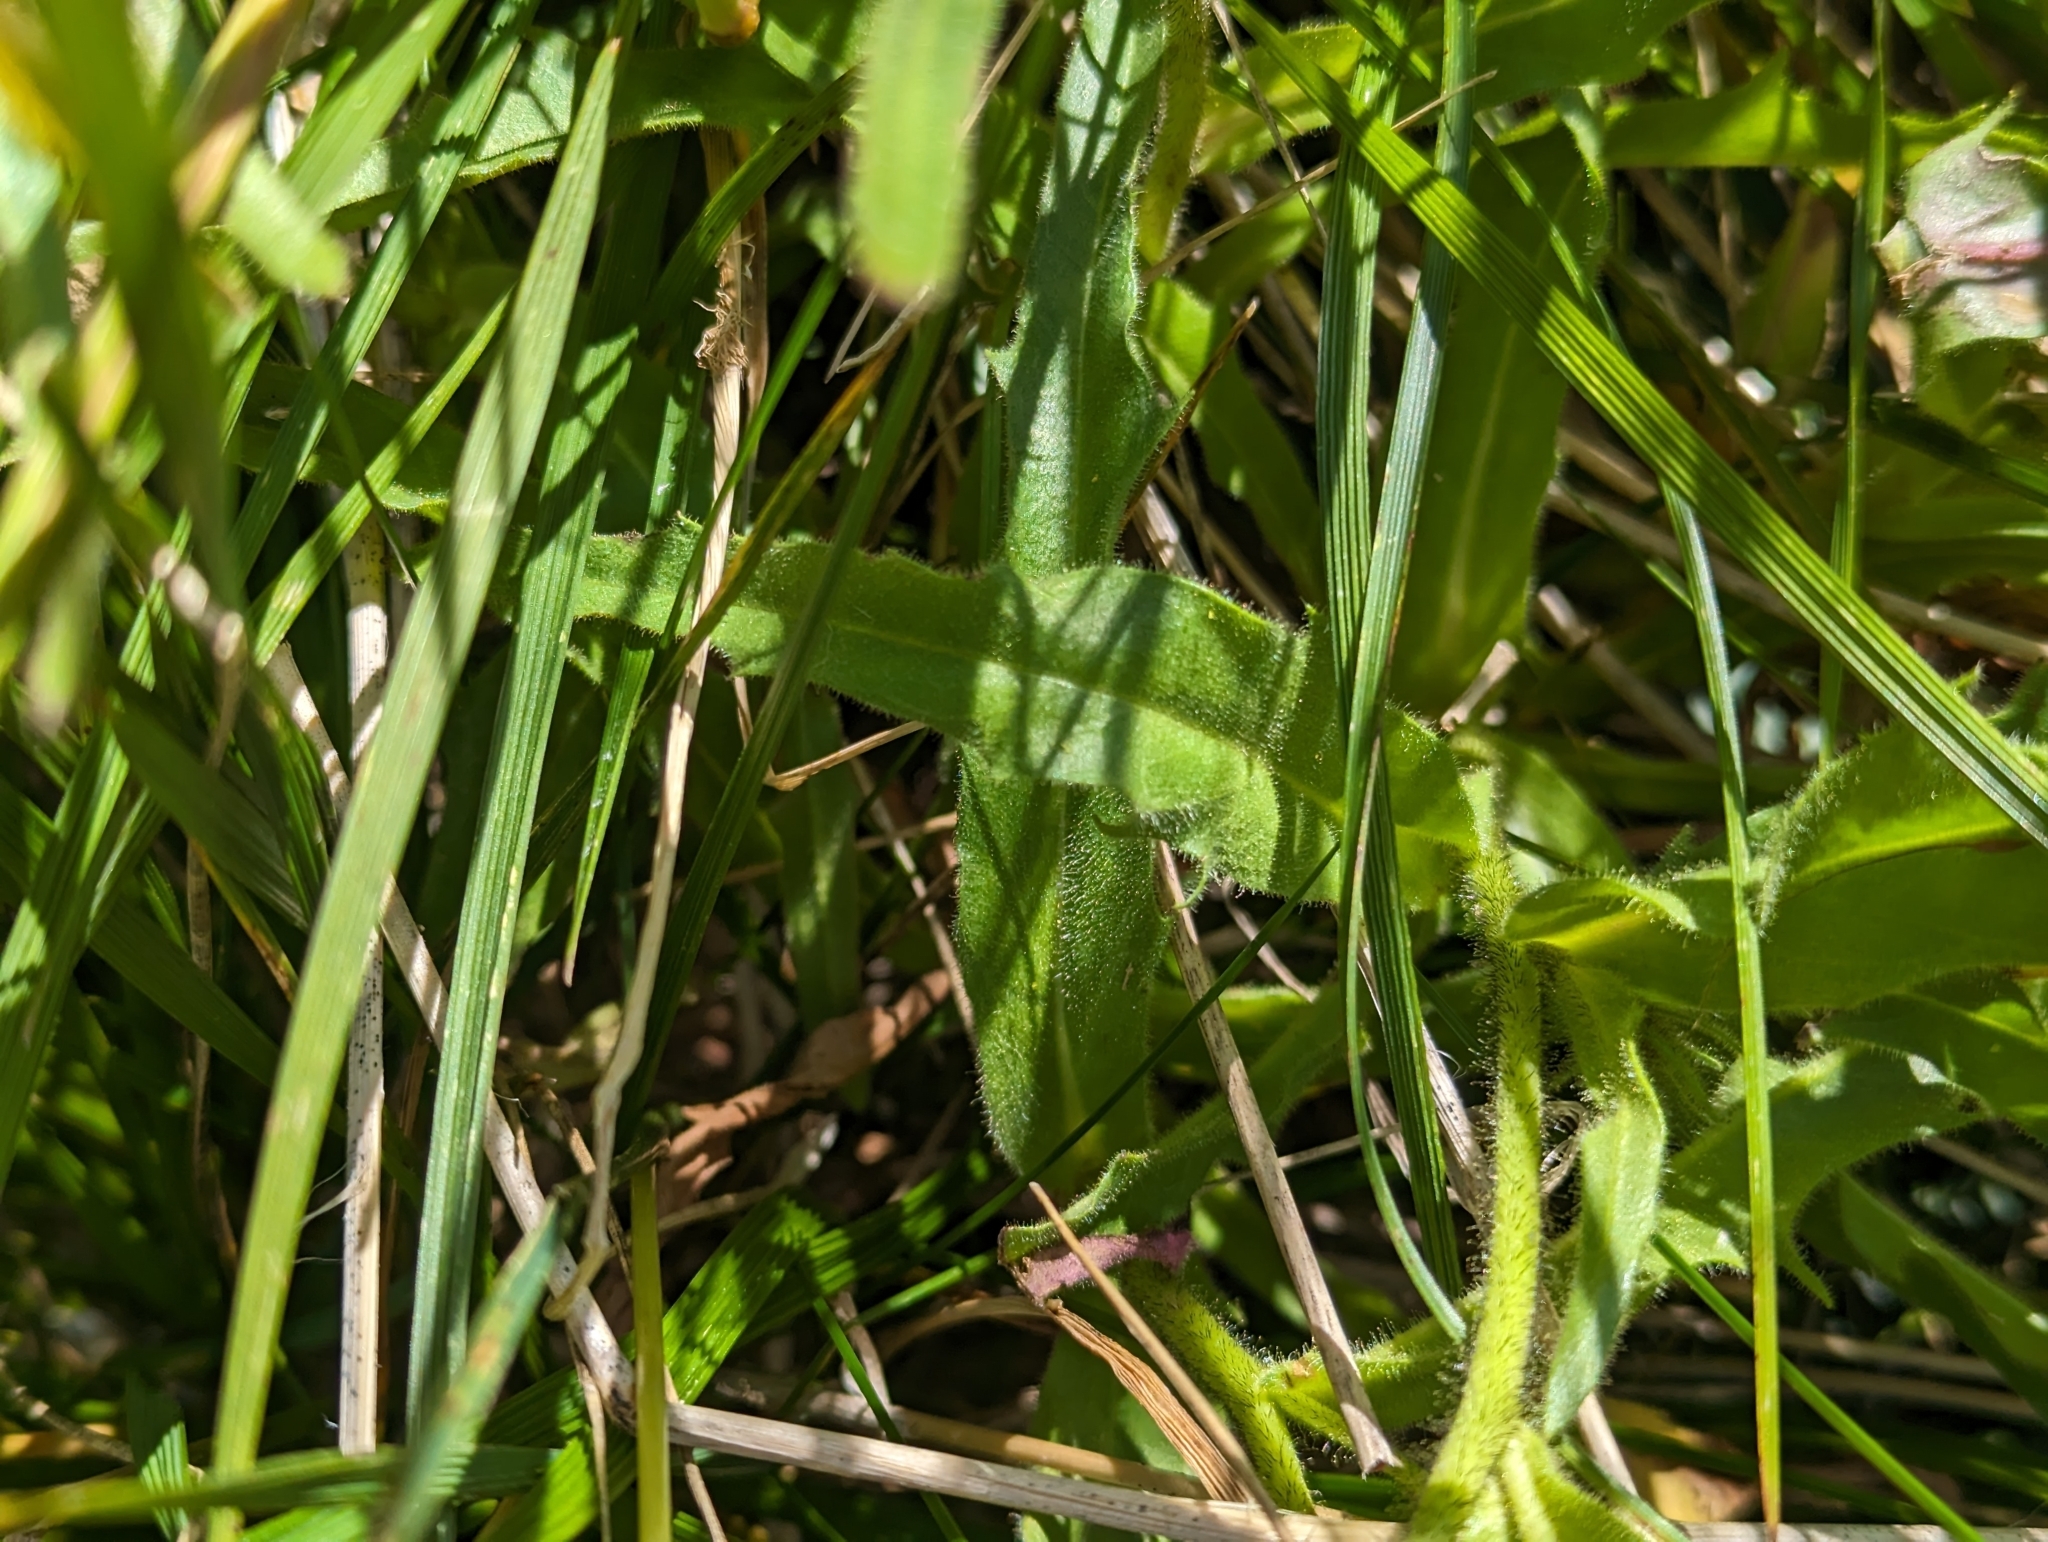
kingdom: Plantae
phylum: Tracheophyta
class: Magnoliopsida
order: Asterales
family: Asteraceae
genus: Schlagintweitia
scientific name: Schlagintweitia intybacea
